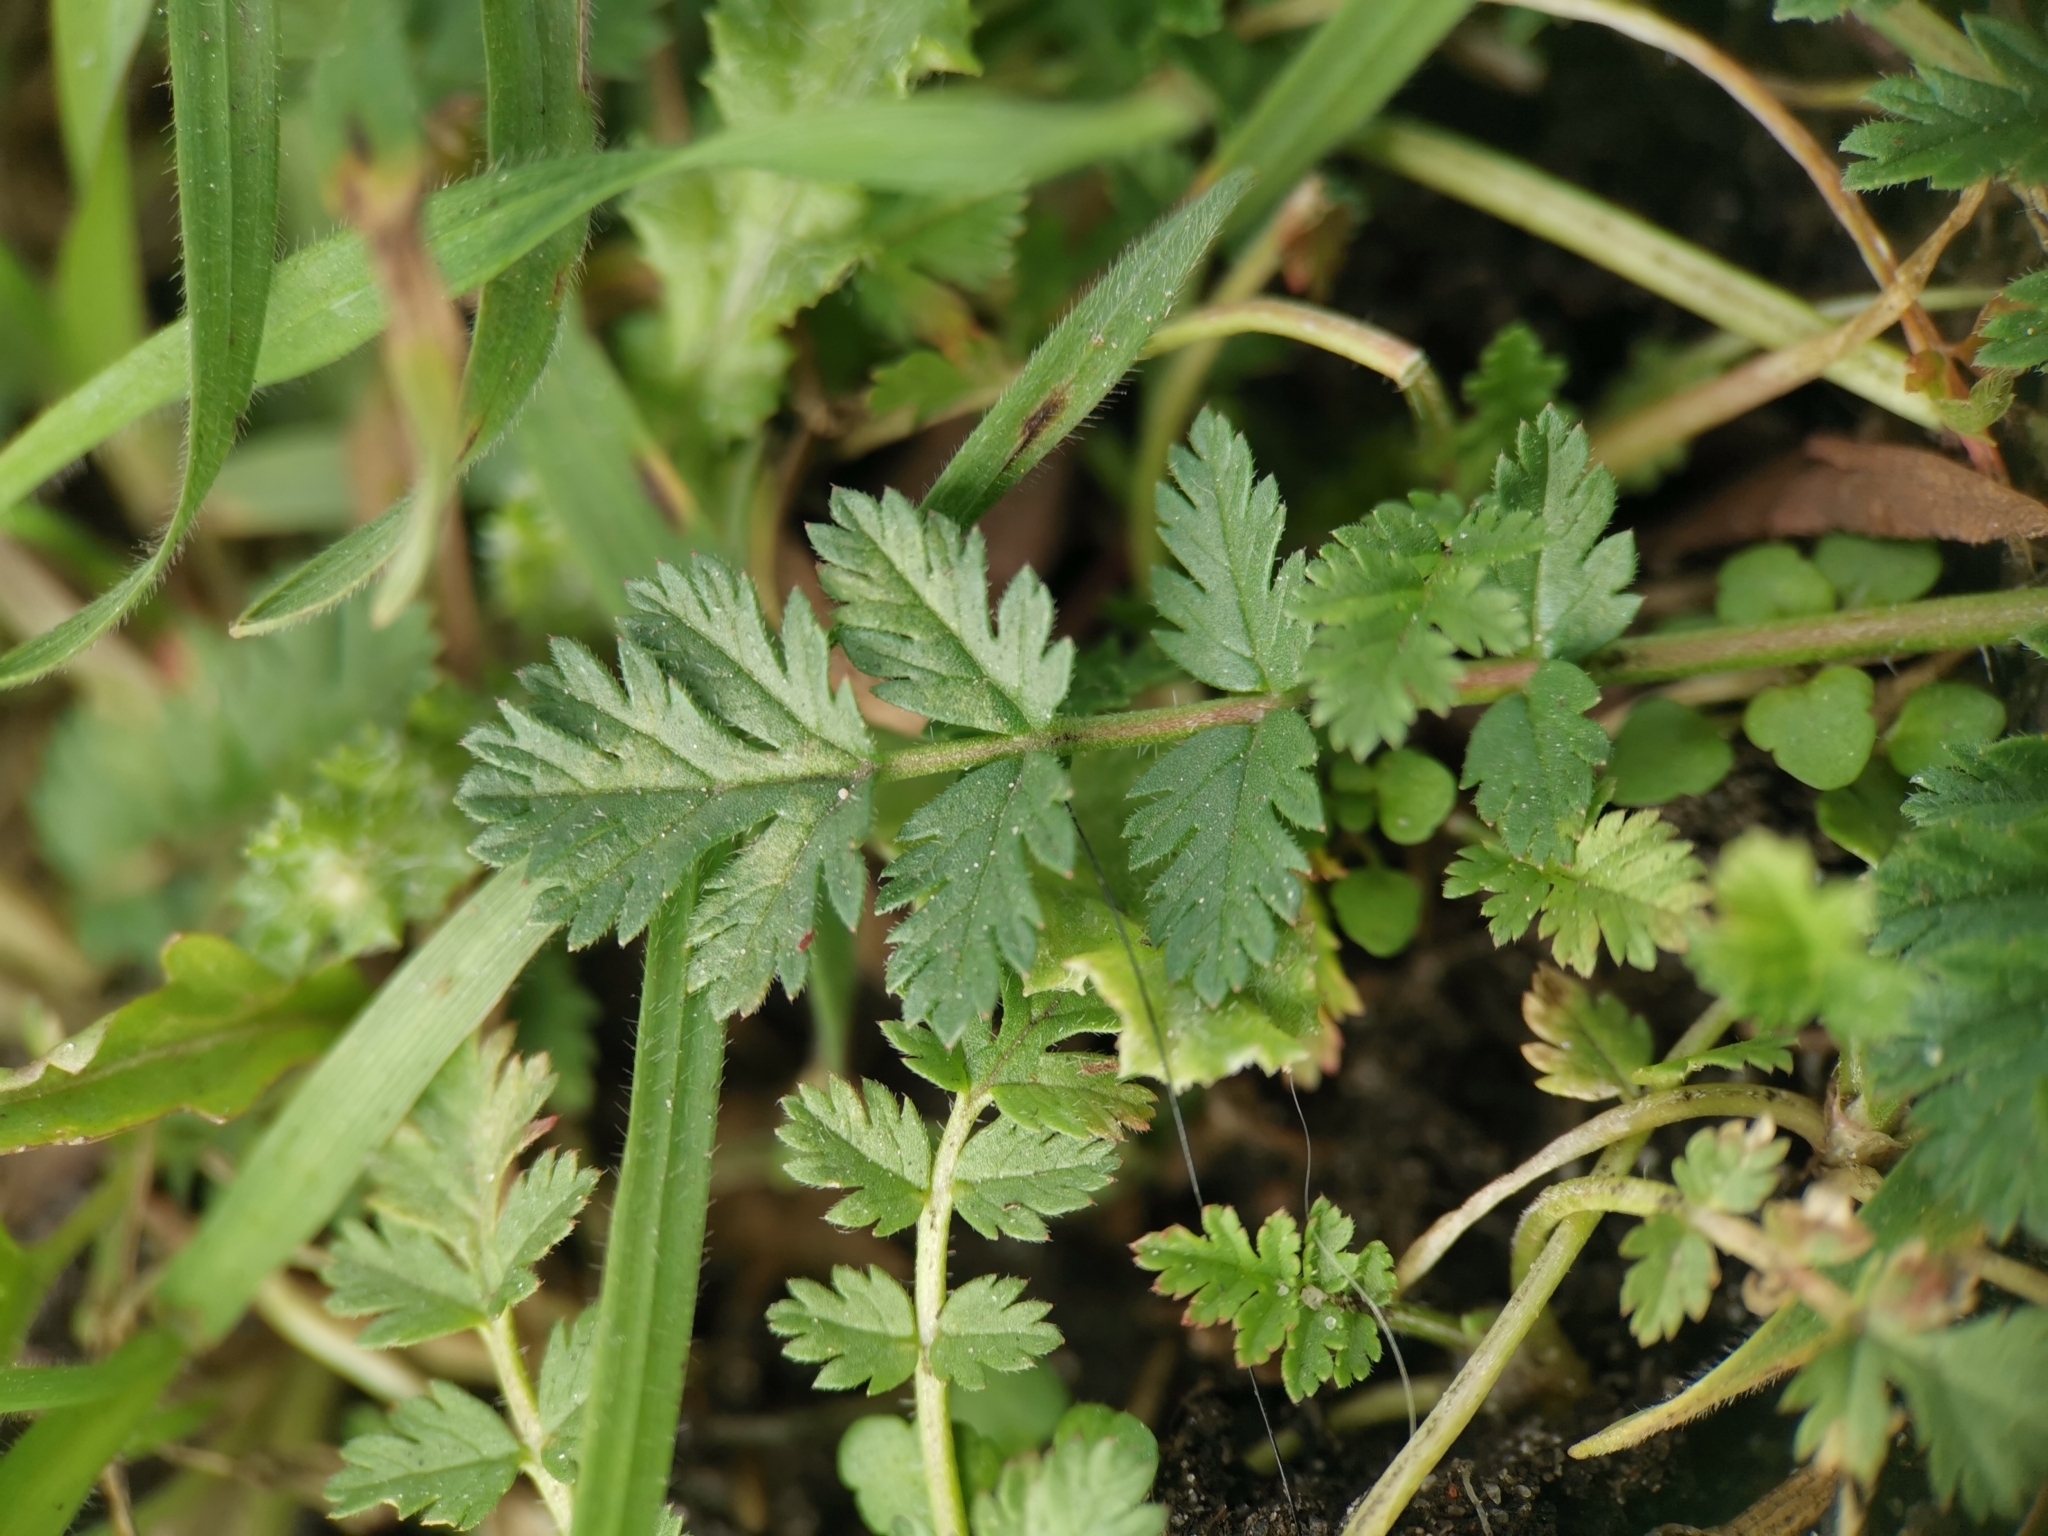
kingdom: Plantae
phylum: Tracheophyta
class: Magnoliopsida
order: Geraniales
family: Geraniaceae
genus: Erodium
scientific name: Erodium cicutarium
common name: Common stork's-bill
